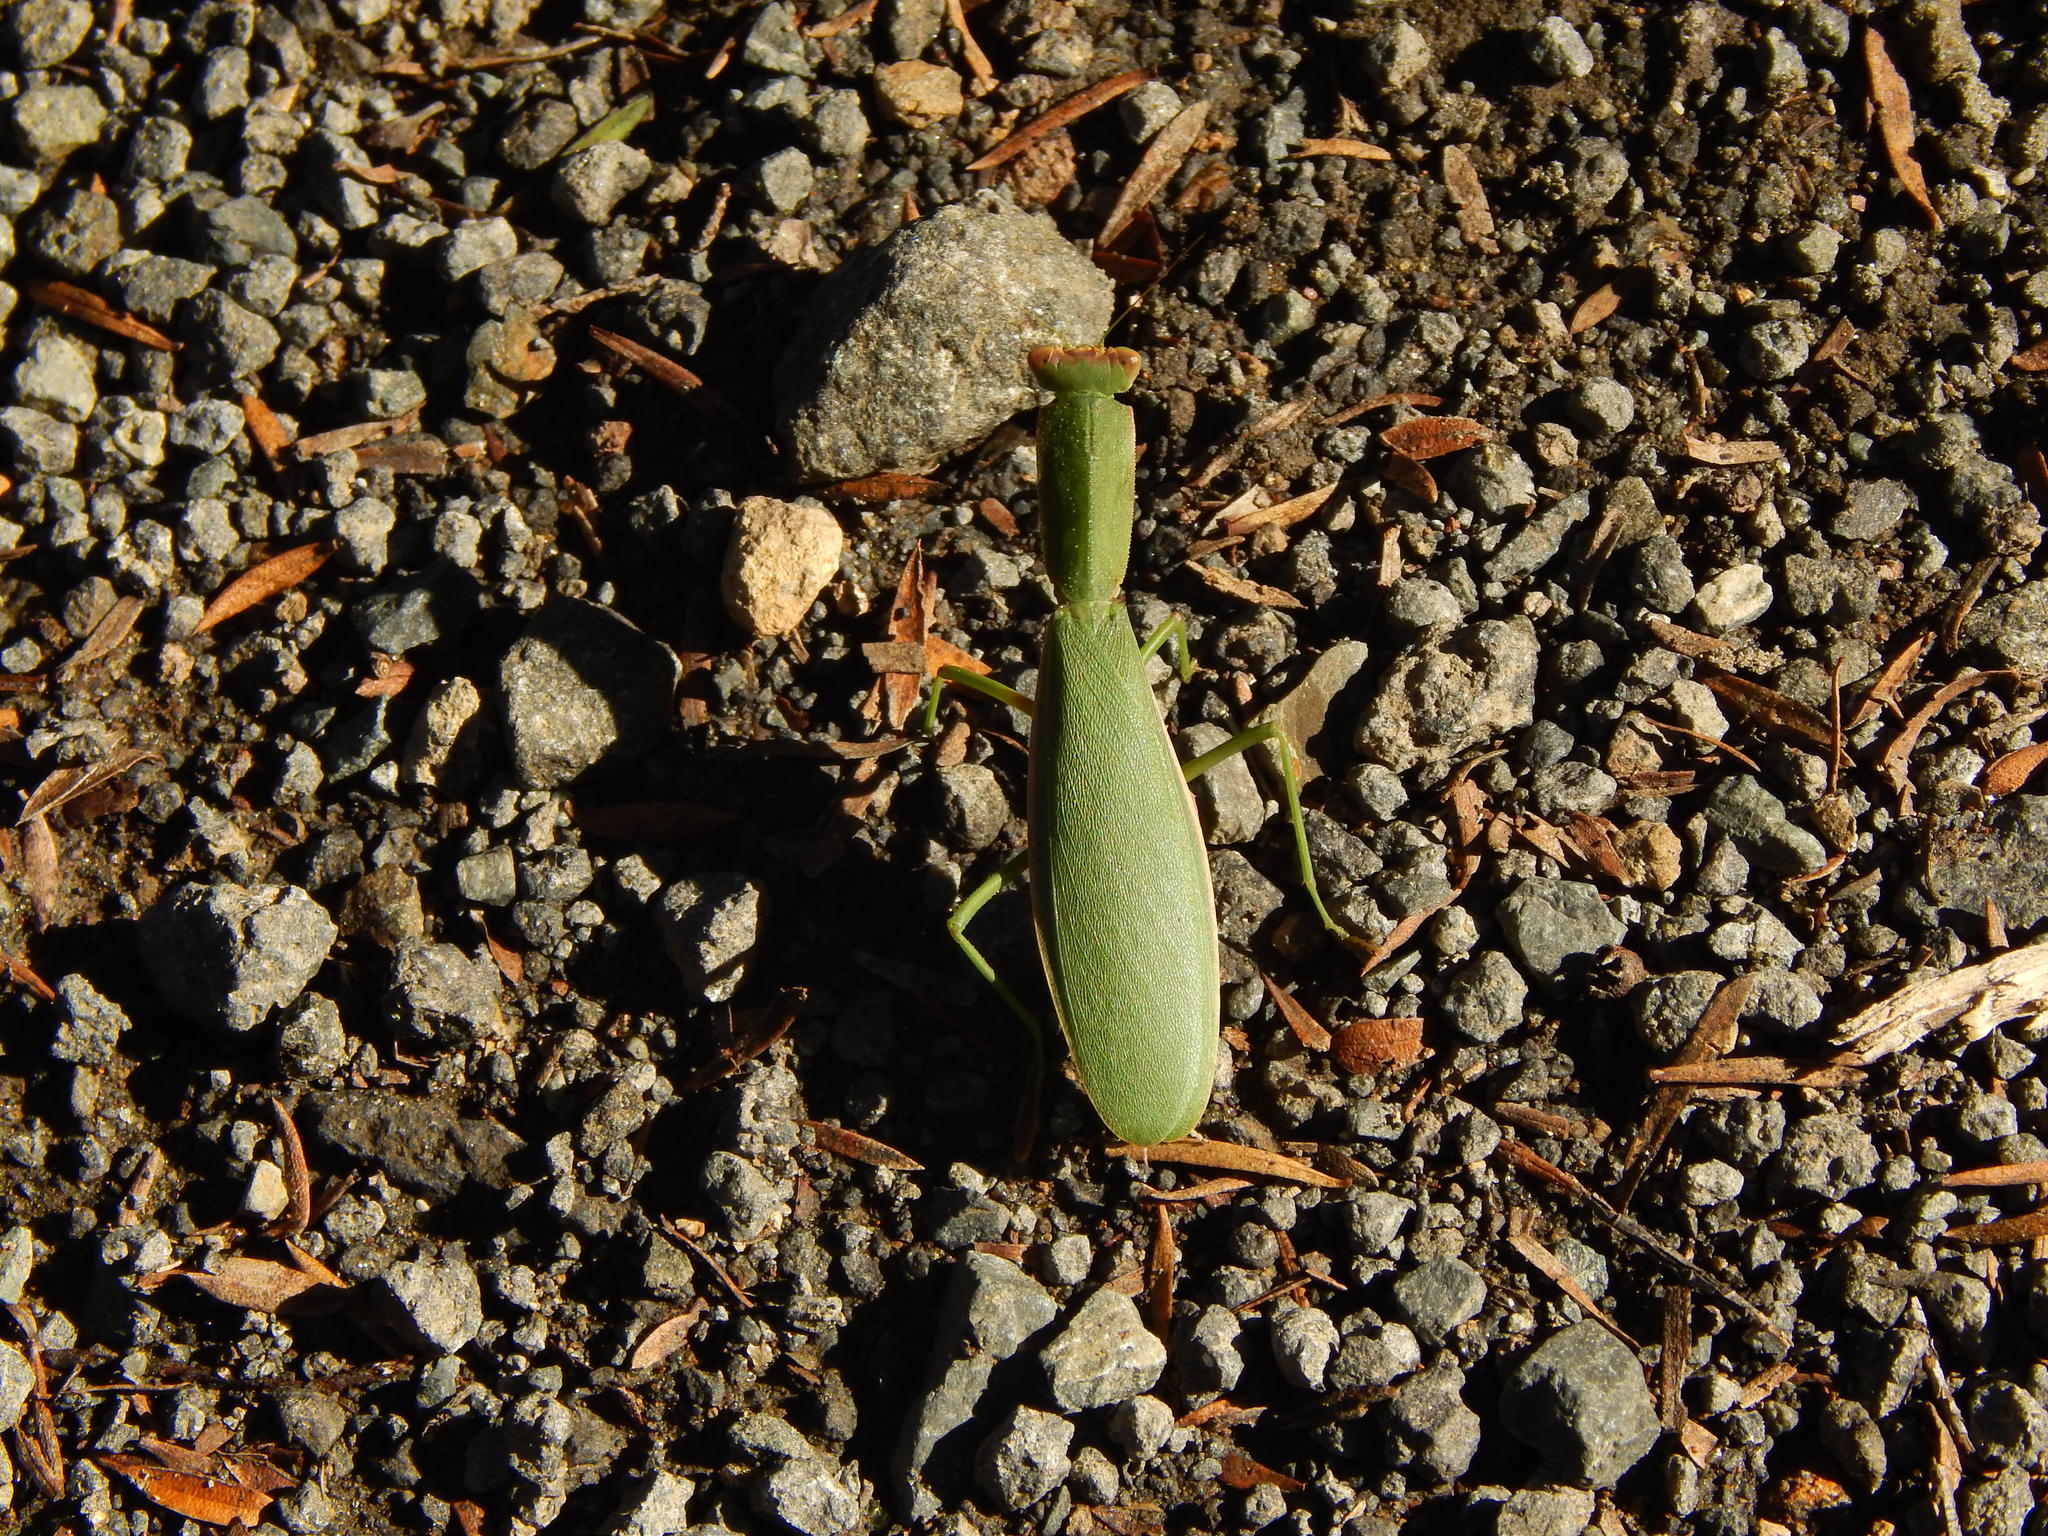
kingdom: Animalia
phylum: Arthropoda
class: Insecta
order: Mantodea
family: Mantidae
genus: Orthodera
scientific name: Orthodera novaezealandiae
